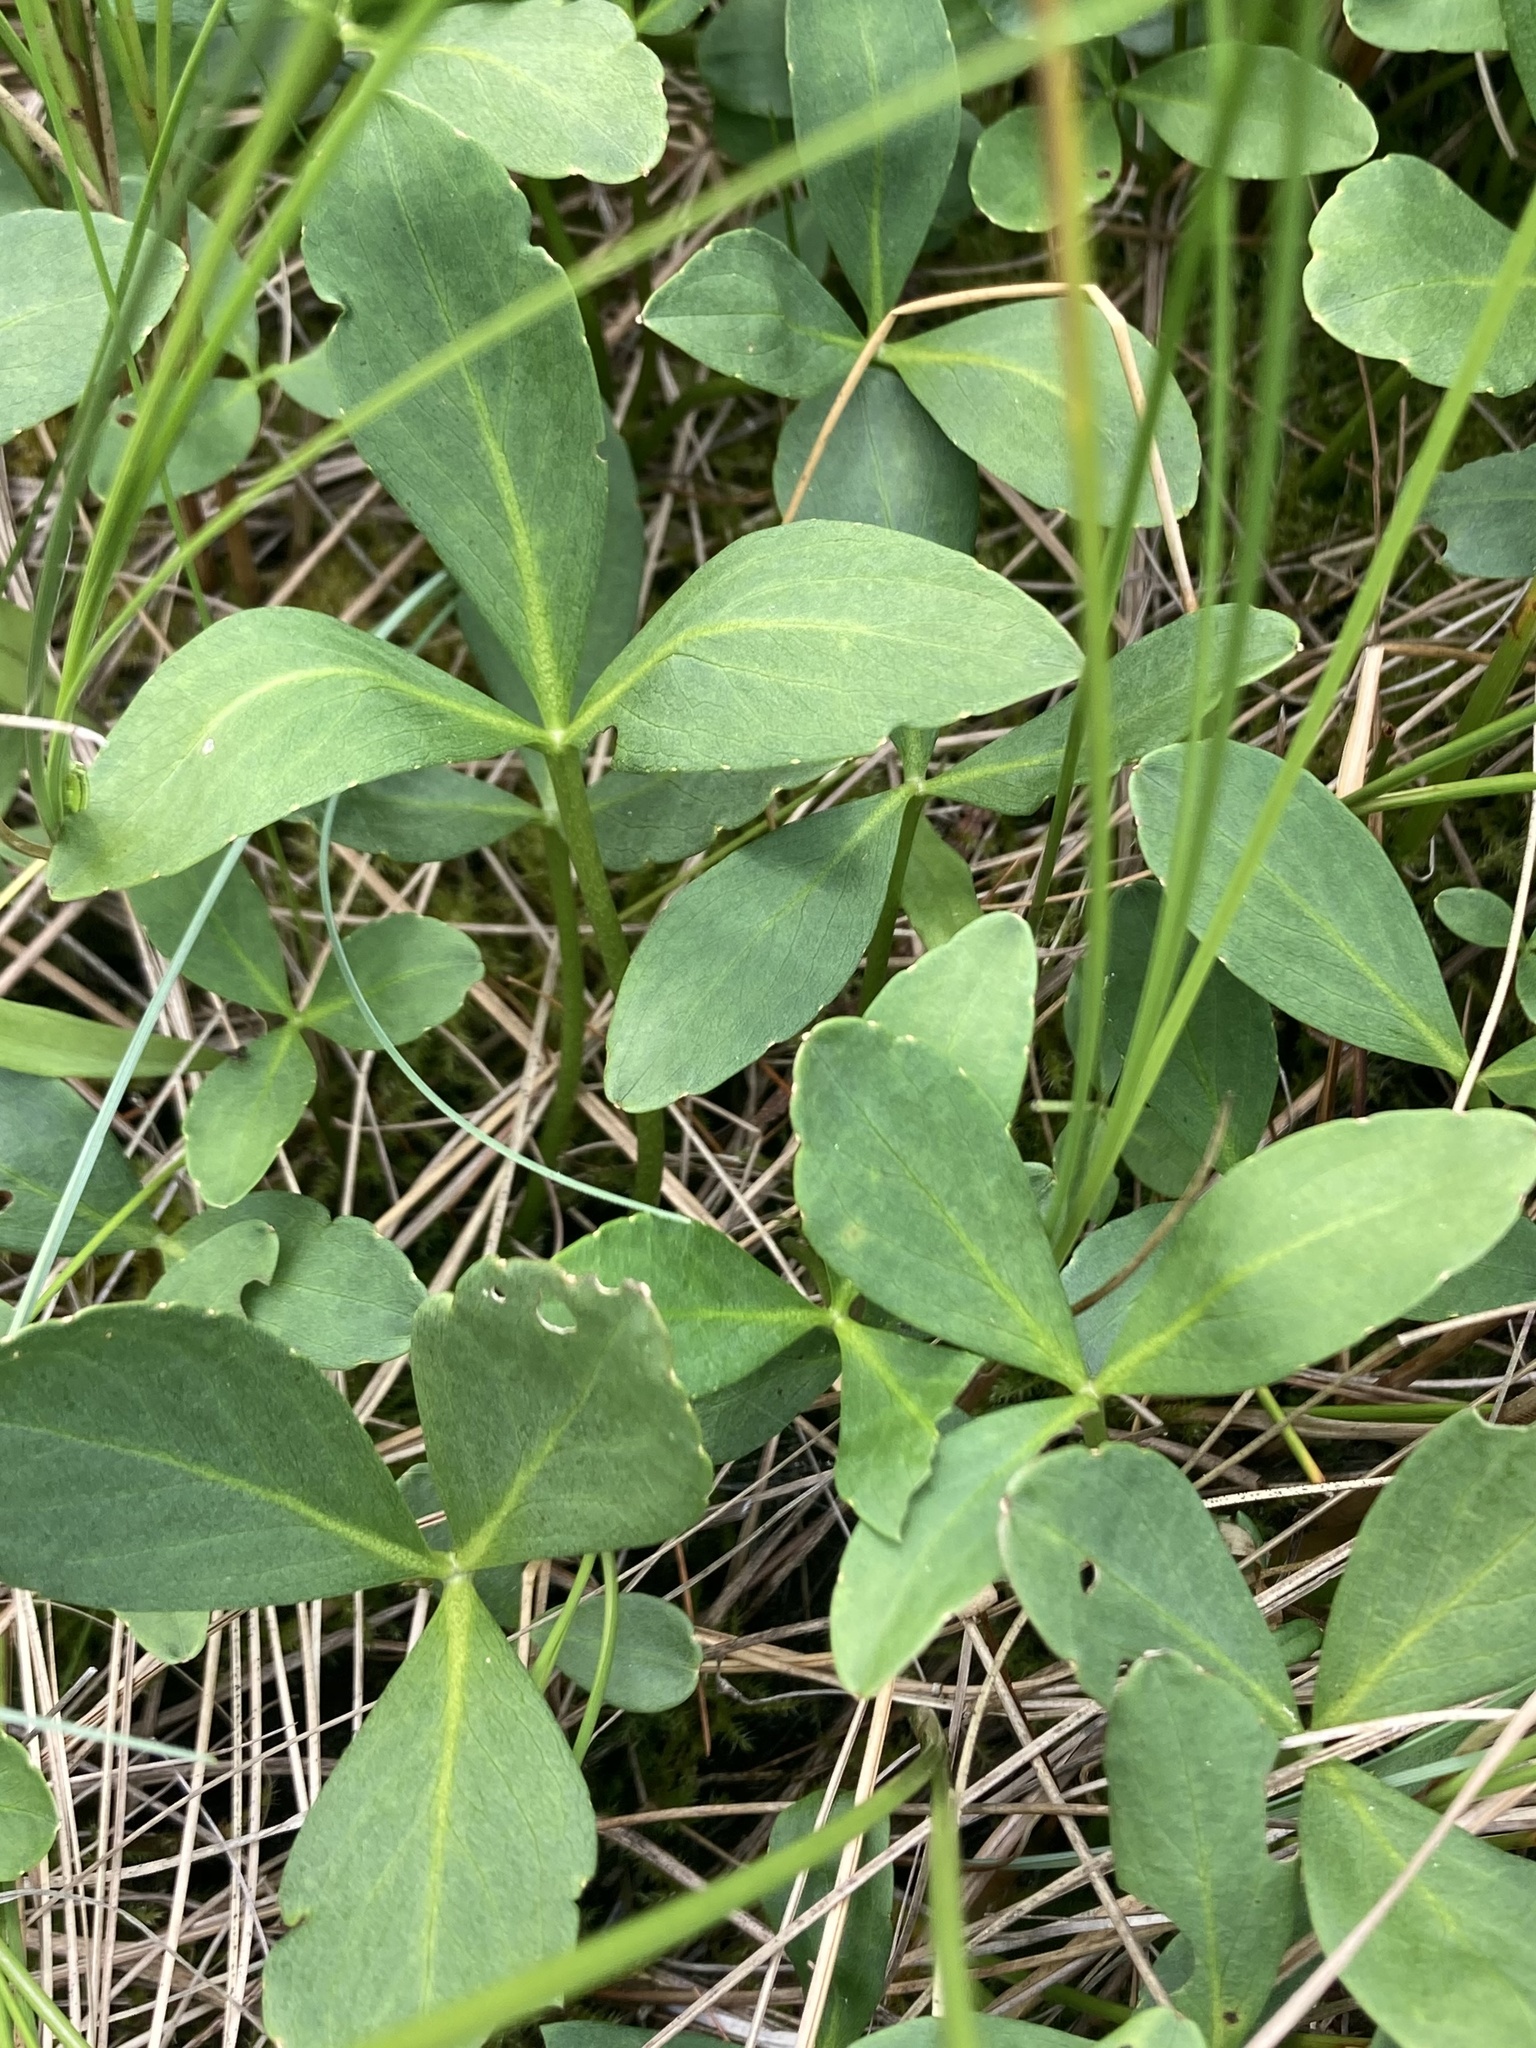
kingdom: Plantae
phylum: Tracheophyta
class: Magnoliopsida
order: Asterales
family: Menyanthaceae
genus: Menyanthes
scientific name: Menyanthes trifoliata
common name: Bogbean
